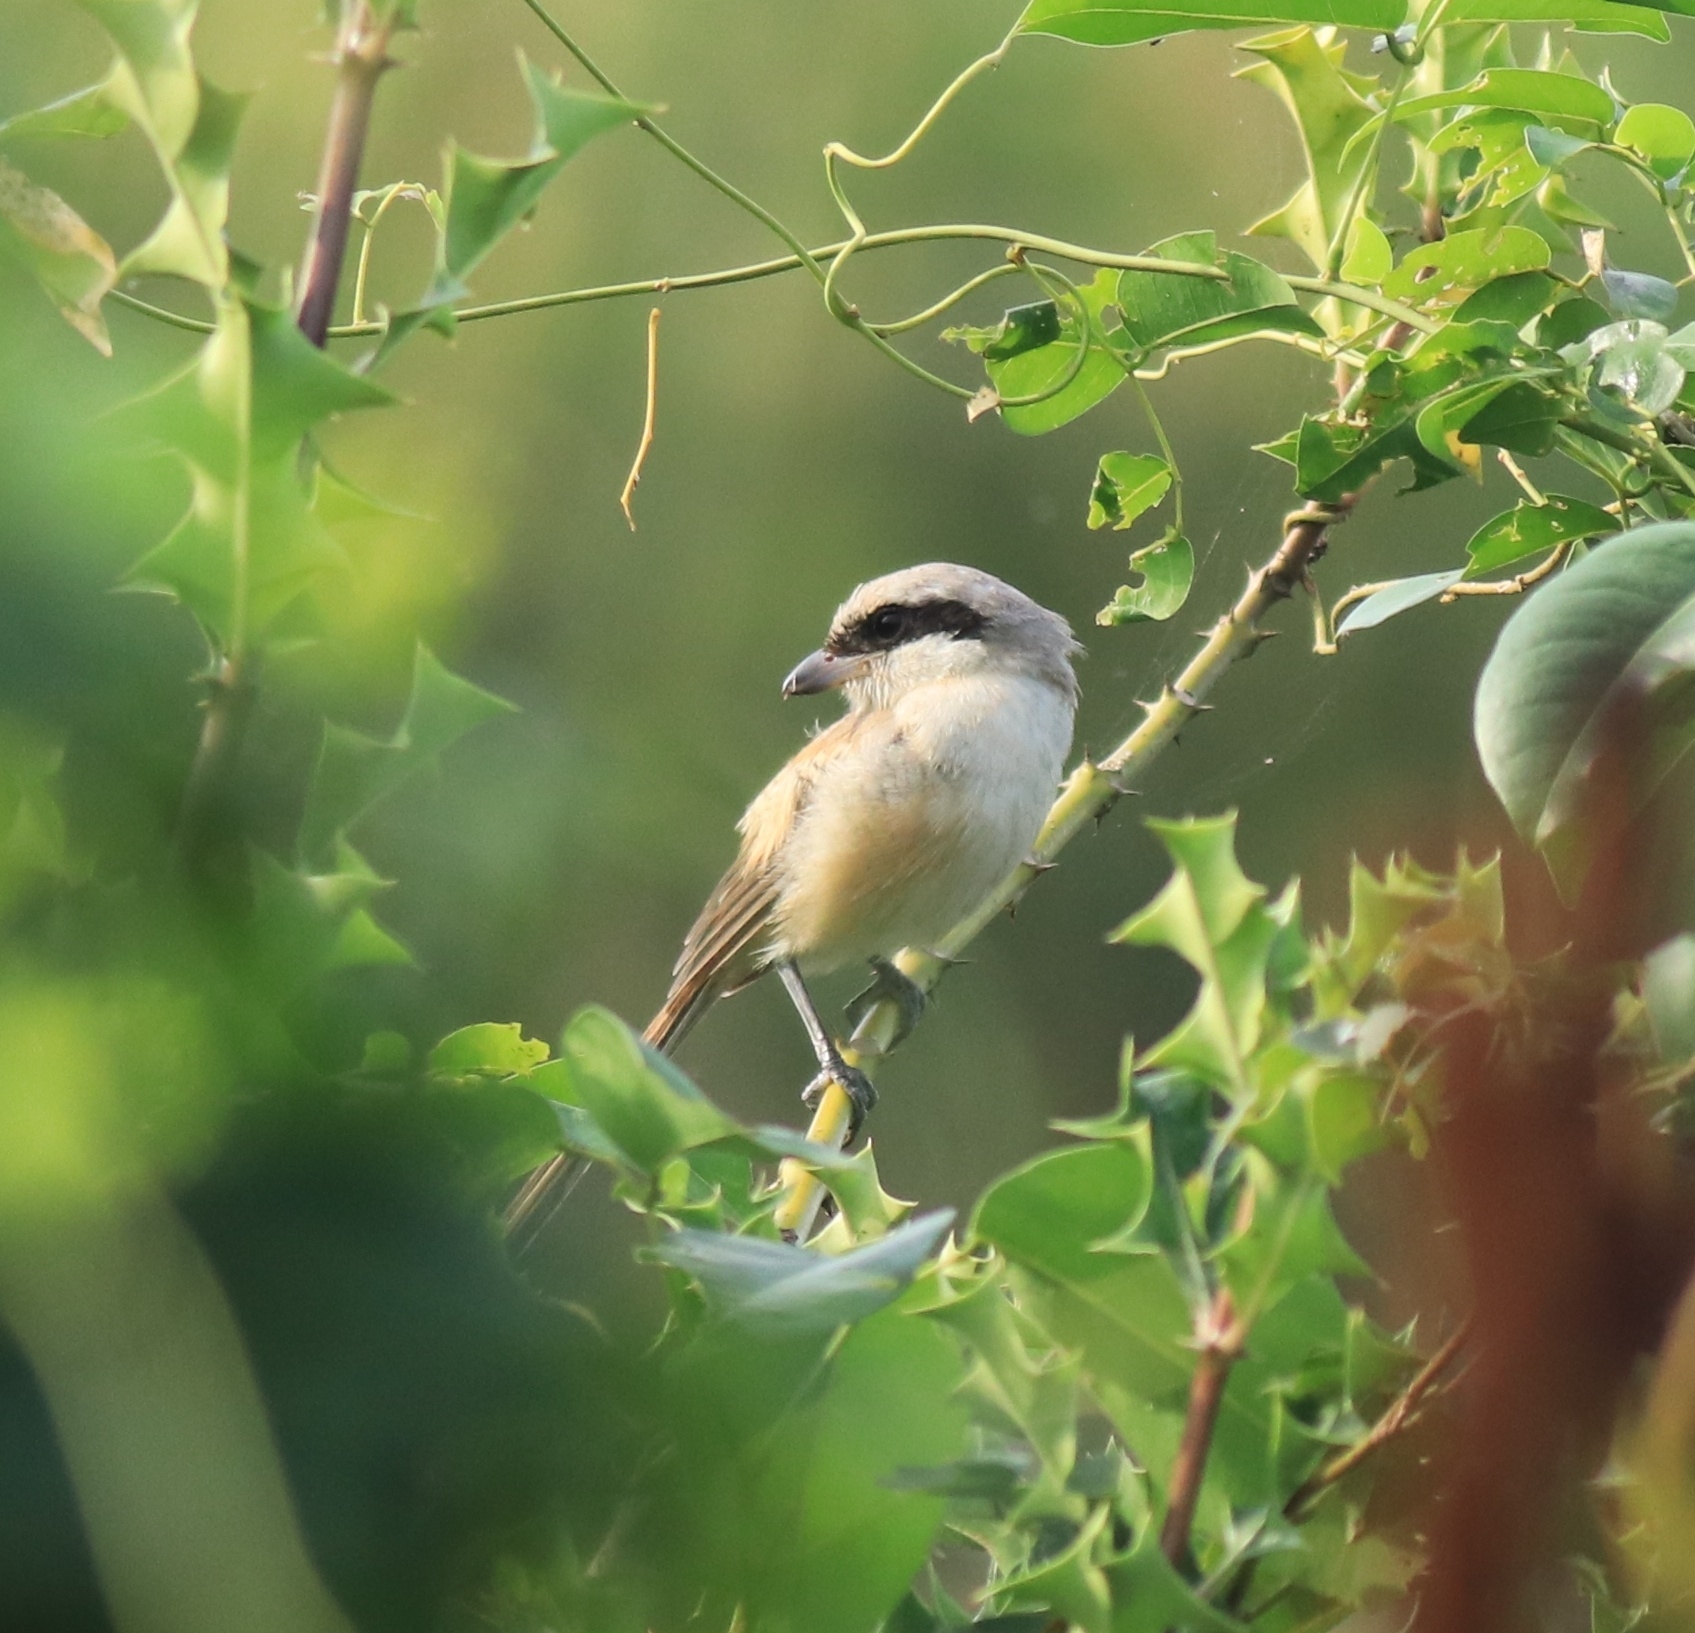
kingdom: Animalia
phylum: Chordata
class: Aves
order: Passeriformes
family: Laniidae
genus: Lanius
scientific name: Lanius schach
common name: Long-tailed shrike
